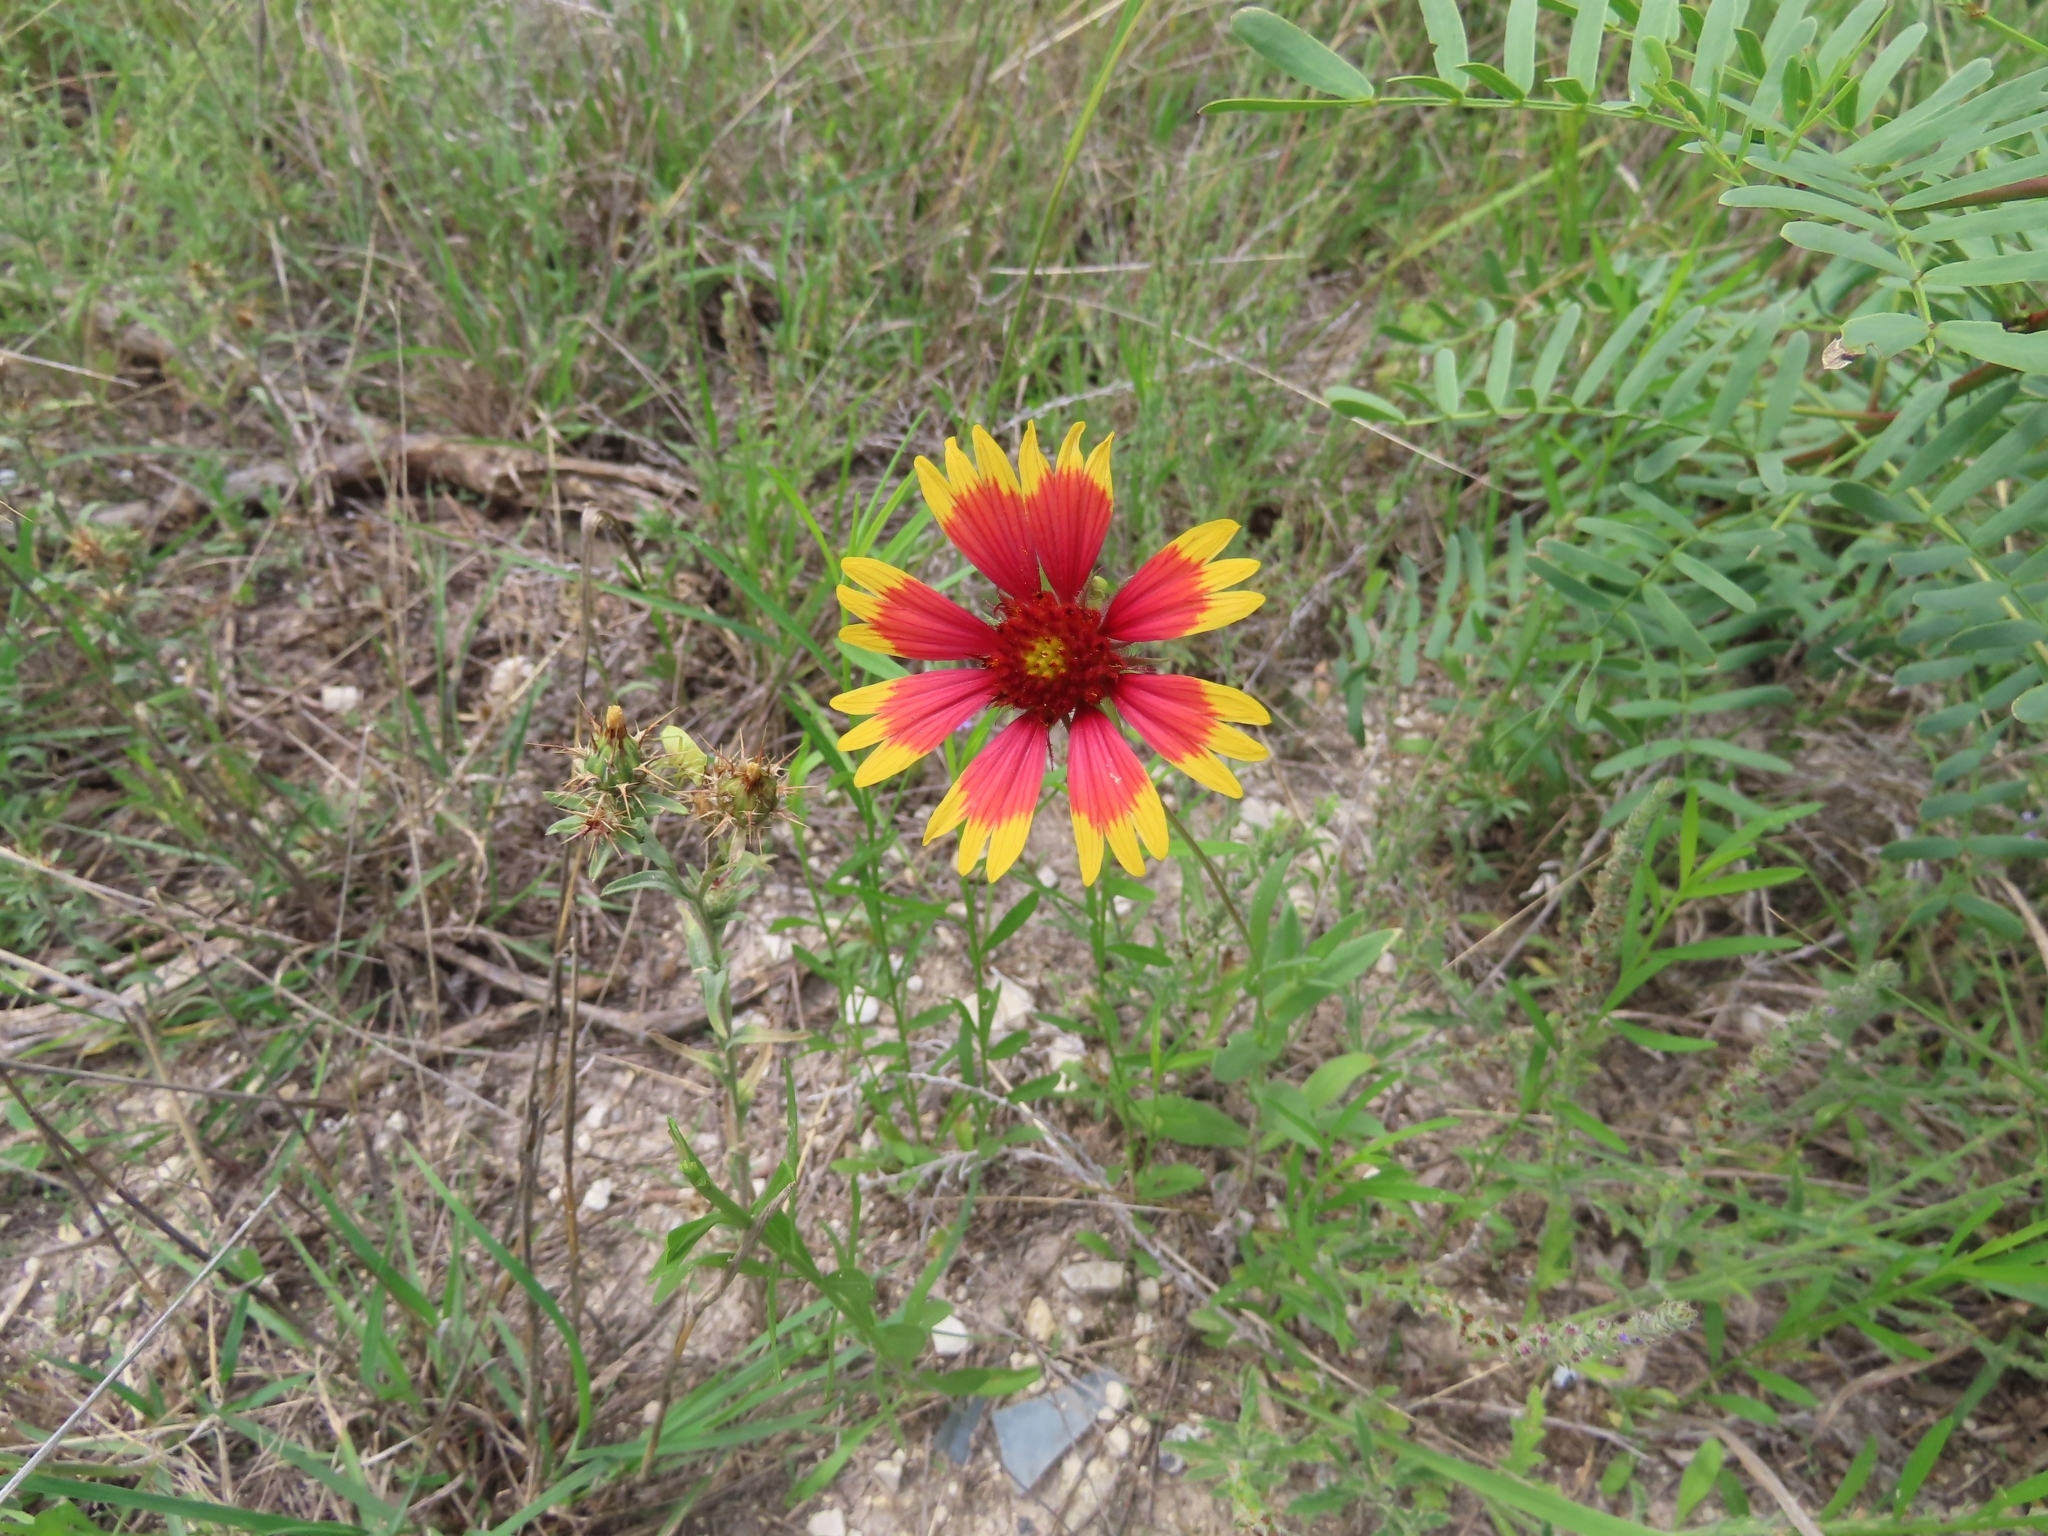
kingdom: Plantae
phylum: Tracheophyta
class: Magnoliopsida
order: Asterales
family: Asteraceae
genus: Gaillardia
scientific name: Gaillardia pulchella
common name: Firewheel
